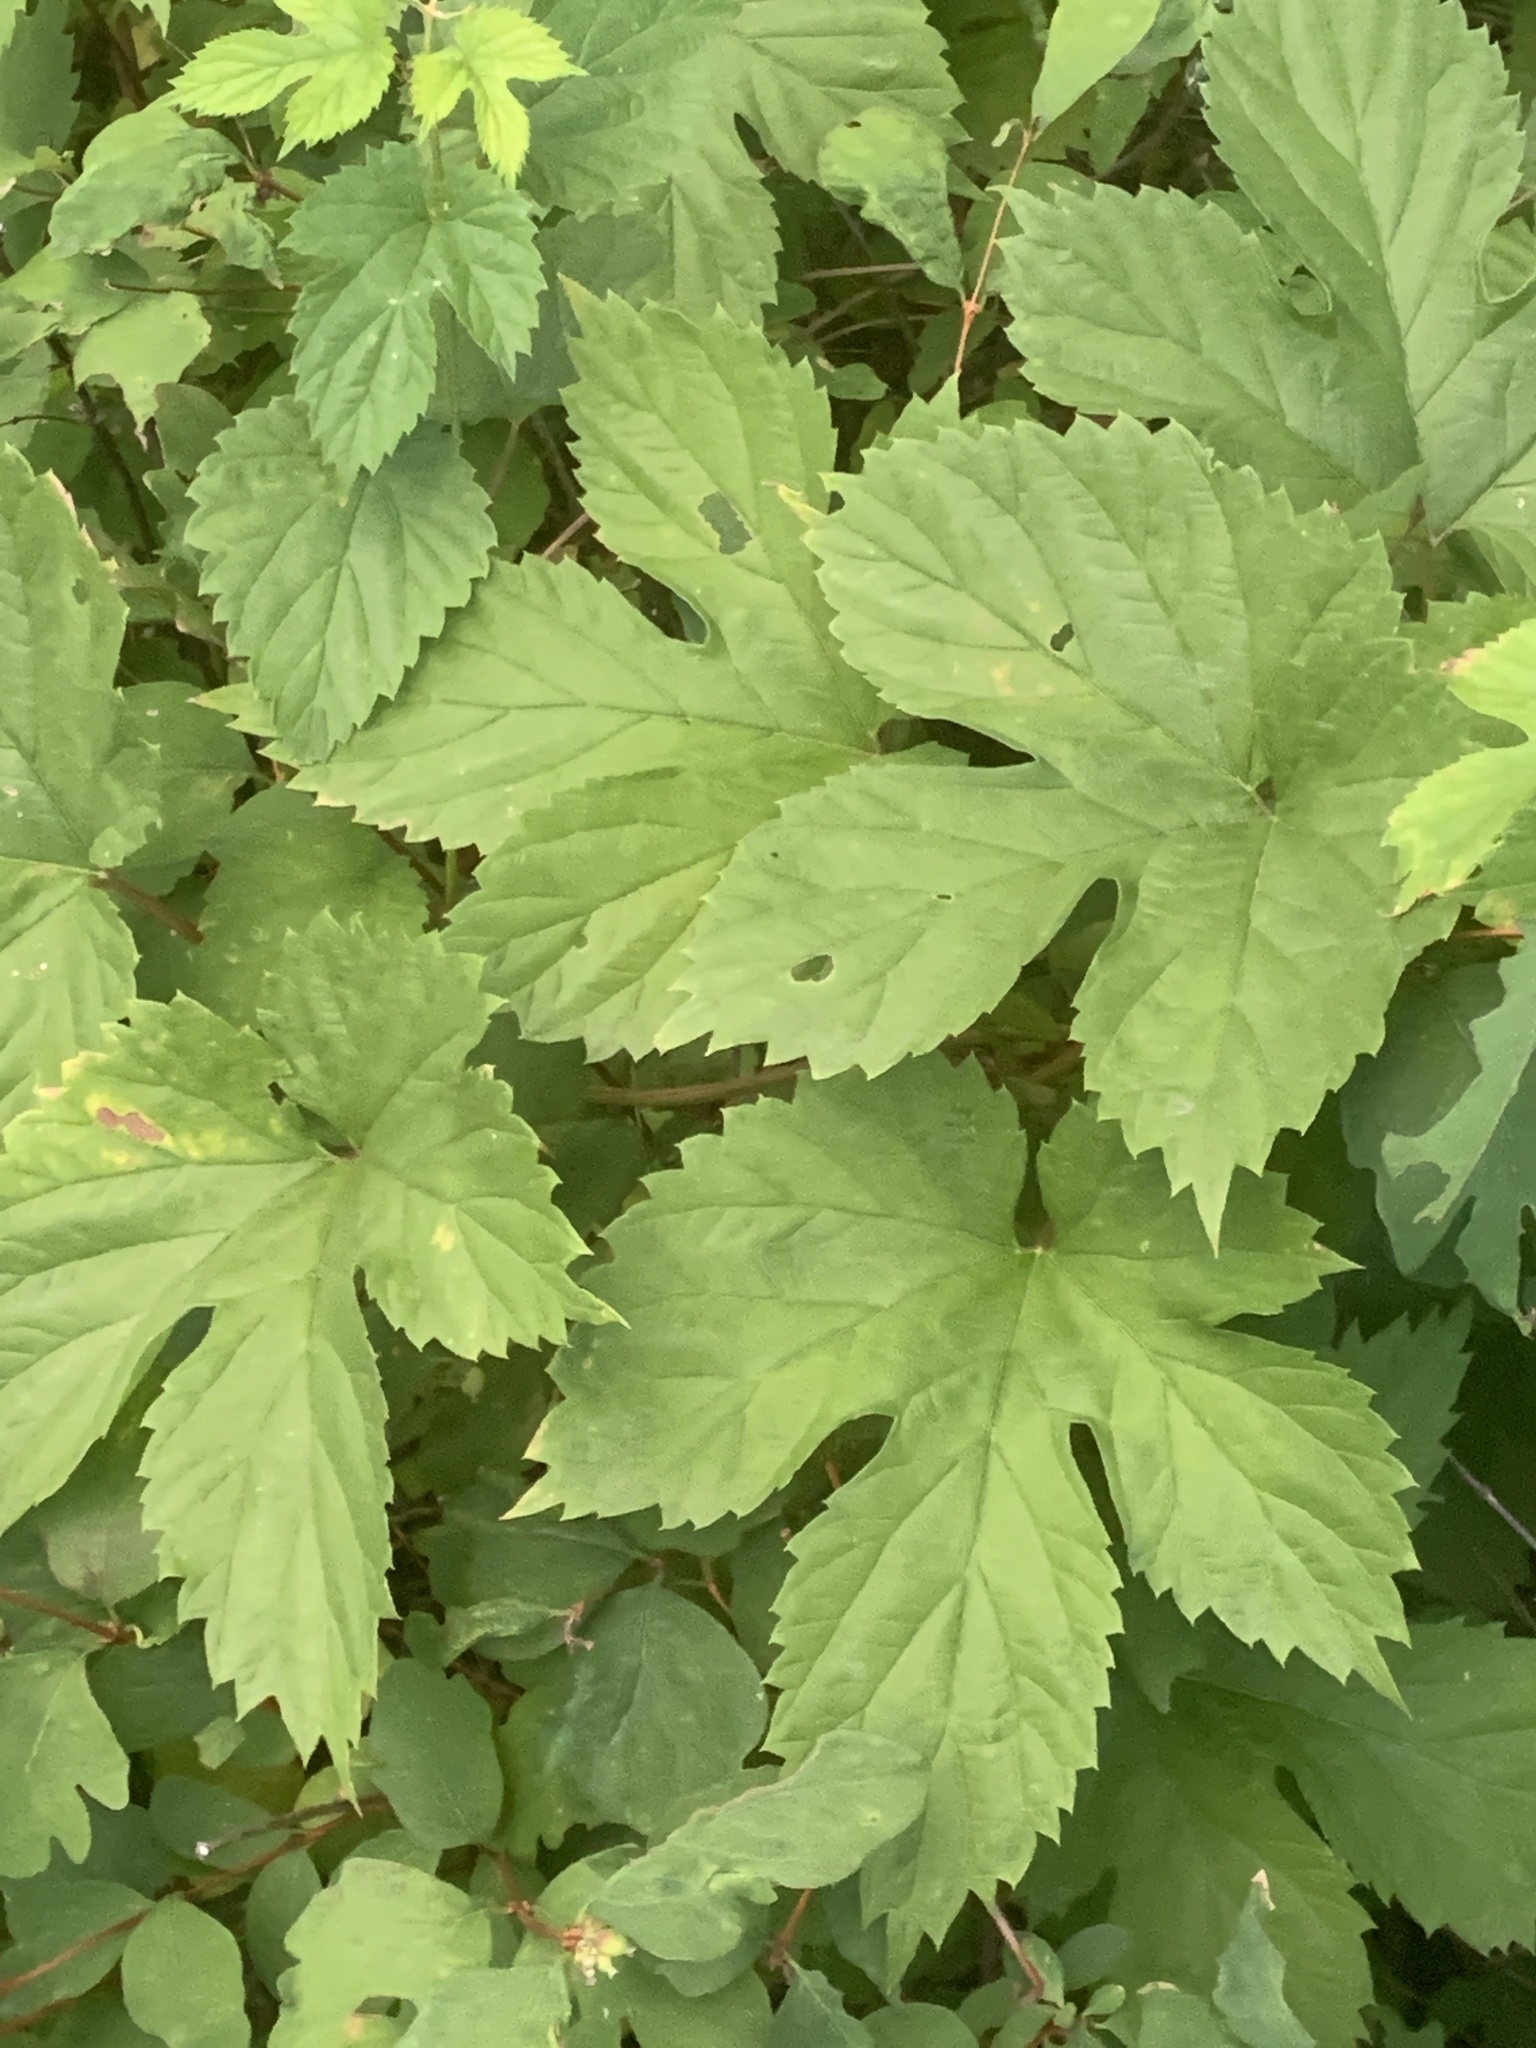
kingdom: Plantae
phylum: Tracheophyta
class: Magnoliopsida
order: Rosales
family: Cannabaceae
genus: Humulus
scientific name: Humulus lupulus
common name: Hop
